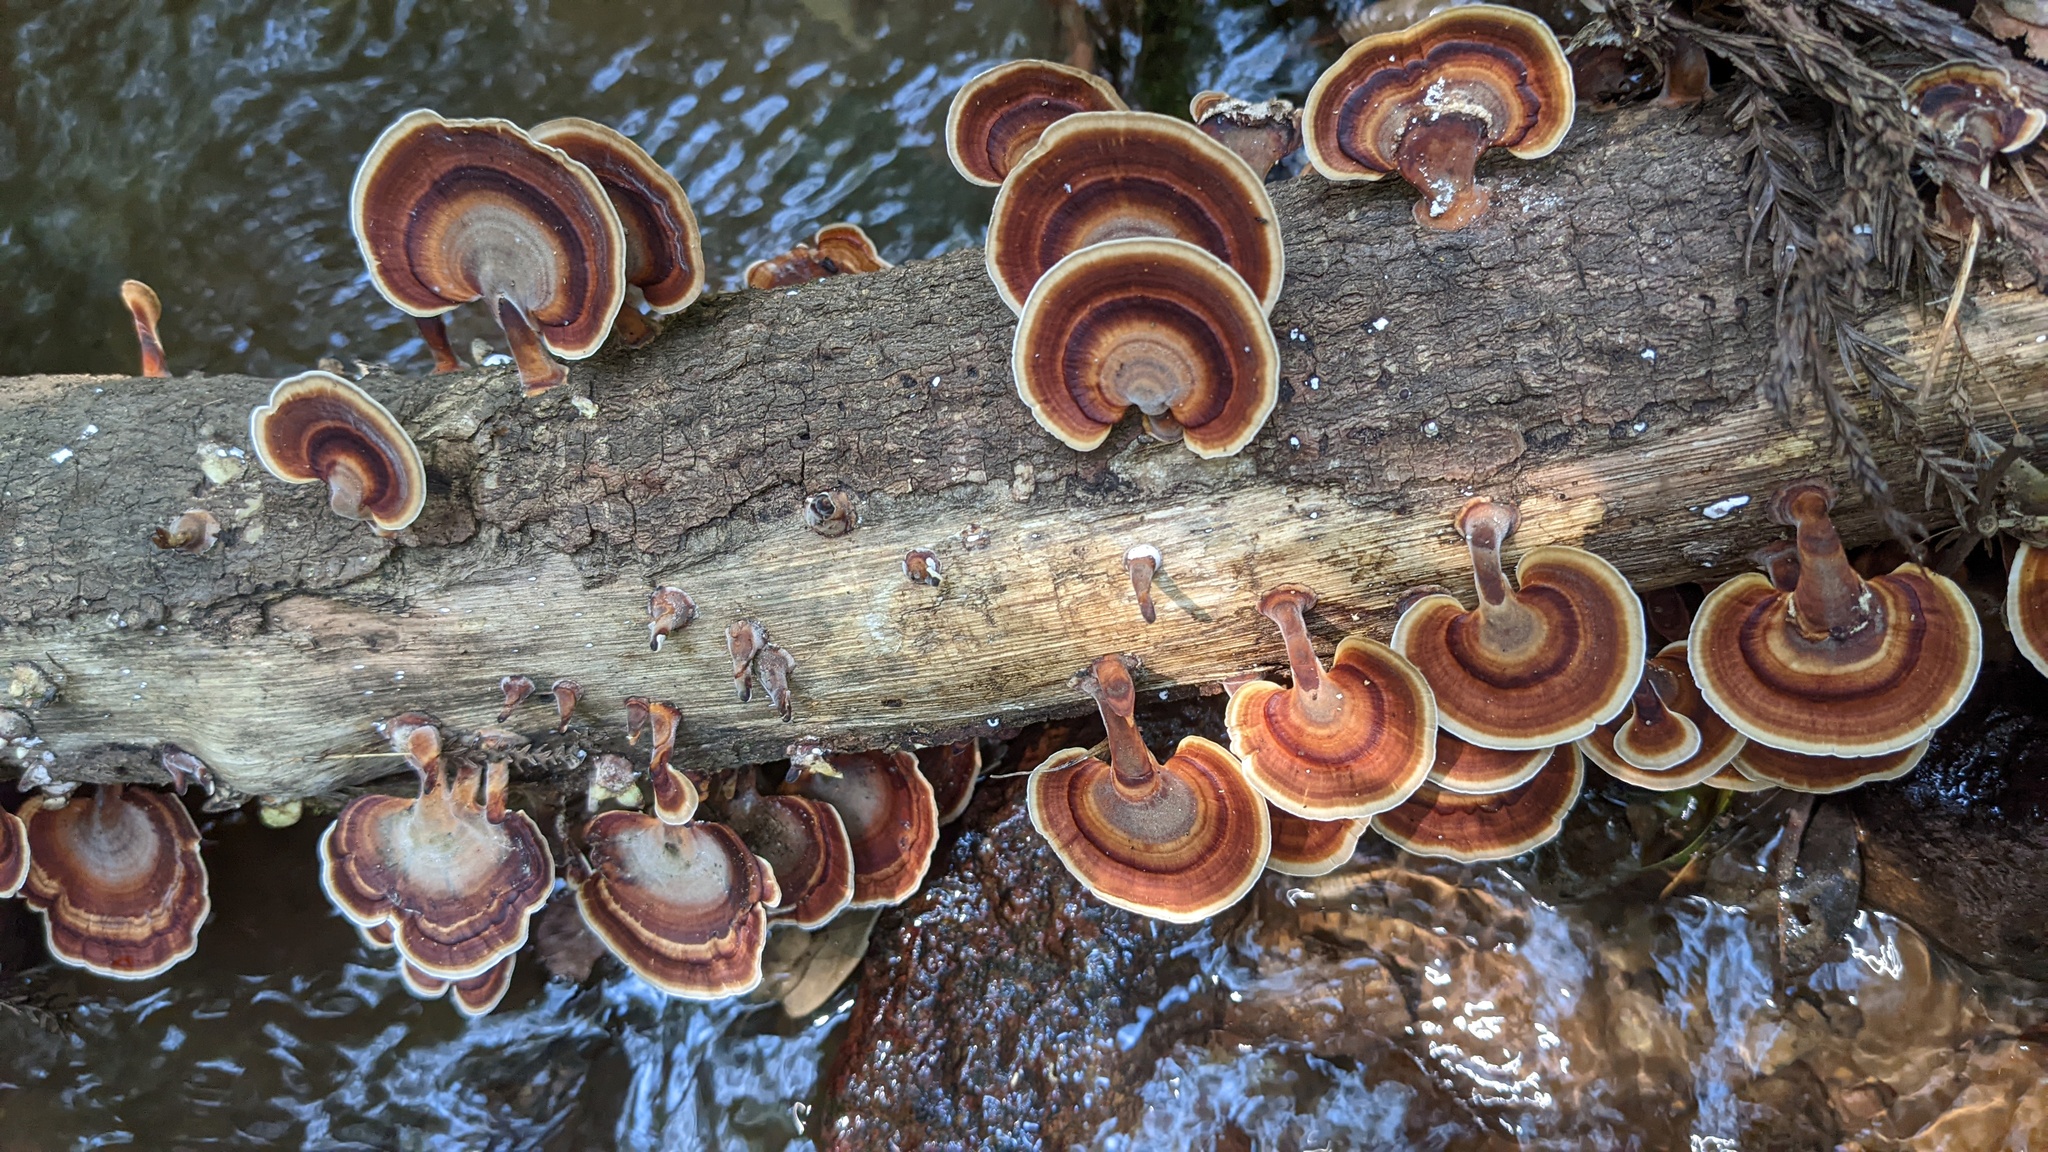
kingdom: Fungi
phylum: Basidiomycota
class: Agaricomycetes
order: Polyporales
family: Polyporaceae
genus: Microporus
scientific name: Microporus affinis
